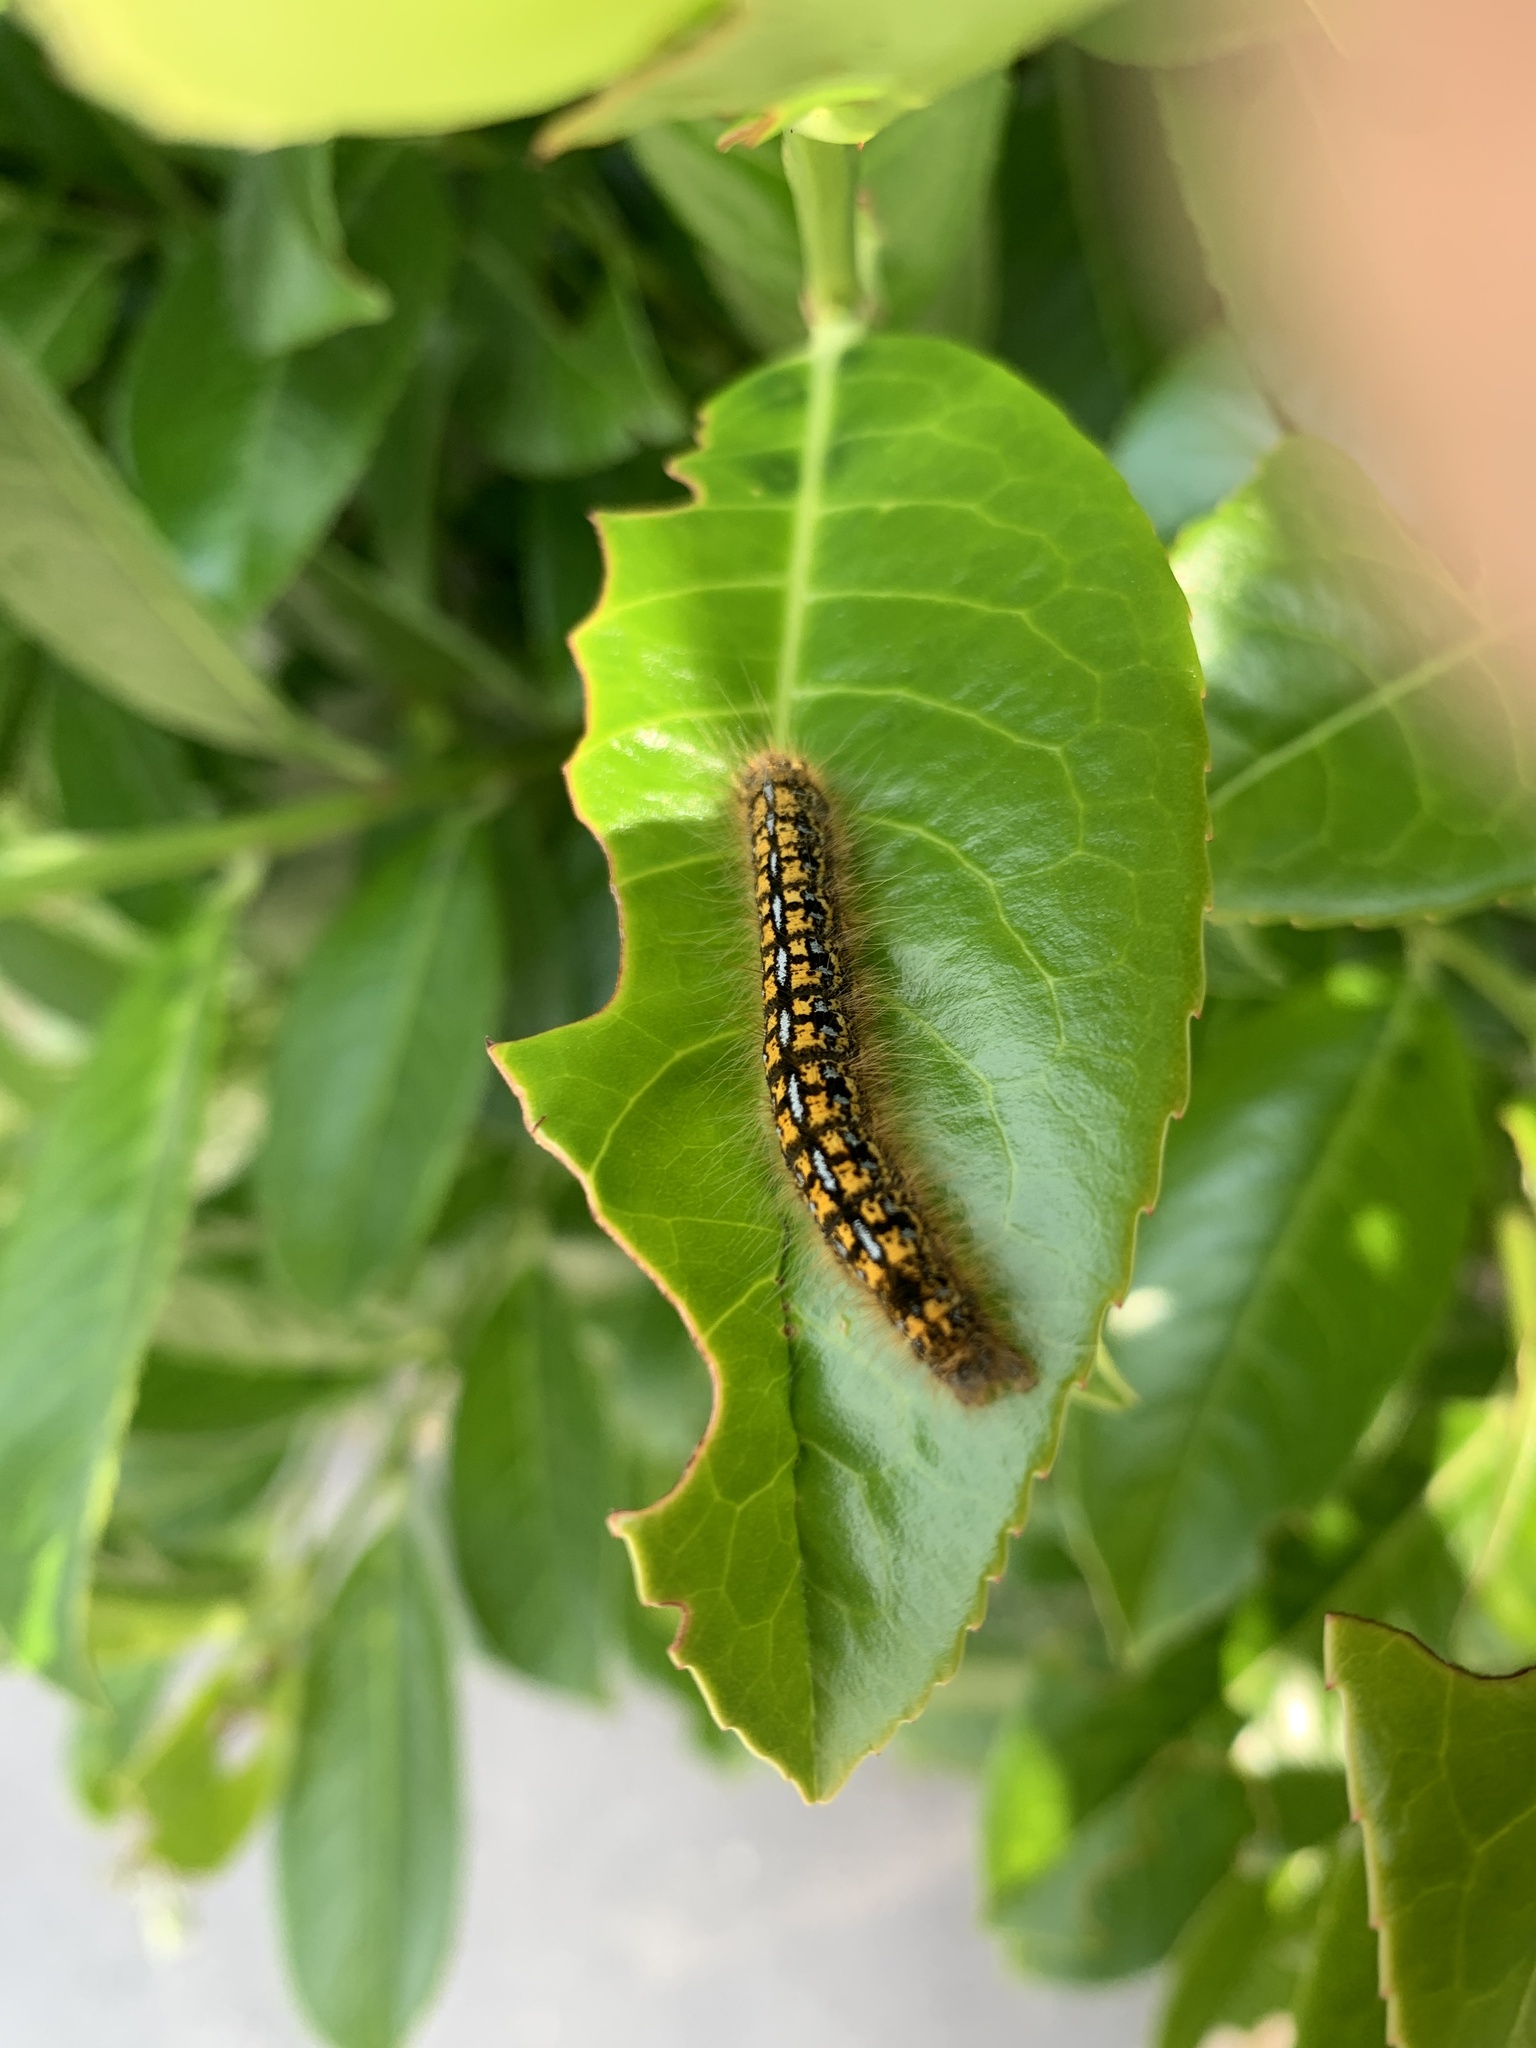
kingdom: Animalia
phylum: Arthropoda
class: Insecta
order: Lepidoptera
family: Lasiocampidae
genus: Malacosoma
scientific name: Malacosoma californica
